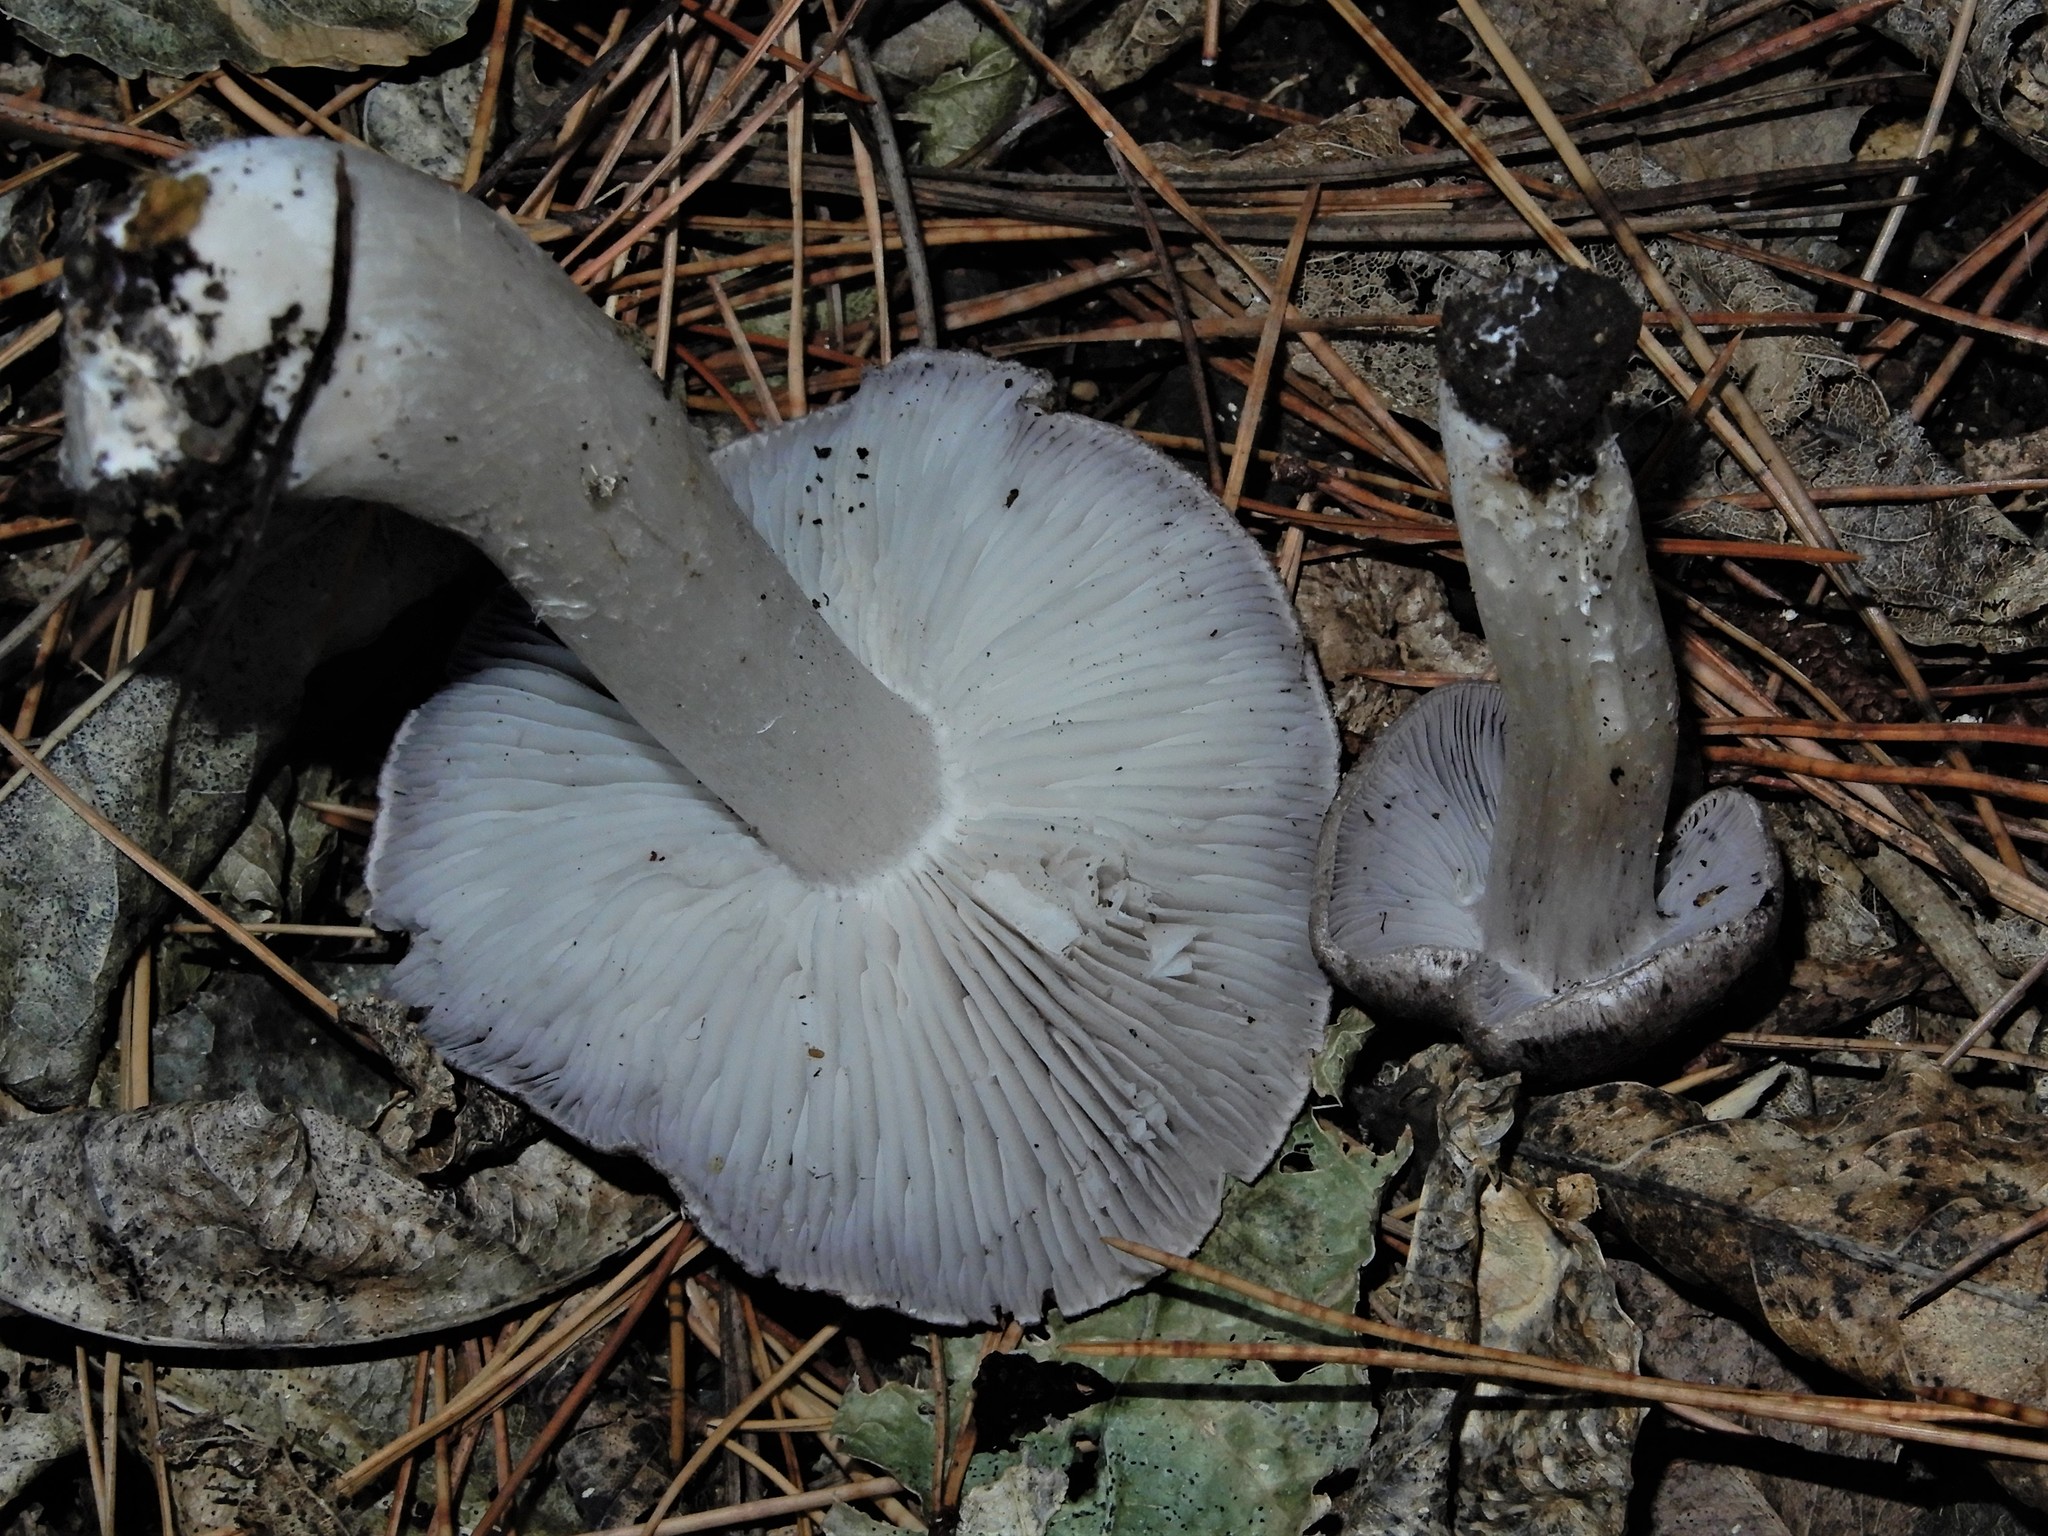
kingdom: Fungi
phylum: Basidiomycota
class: Agaricomycetes
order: Agaricales
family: Tricholomataceae
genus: Tricholoma
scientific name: Tricholoma terreum
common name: Grey knight
